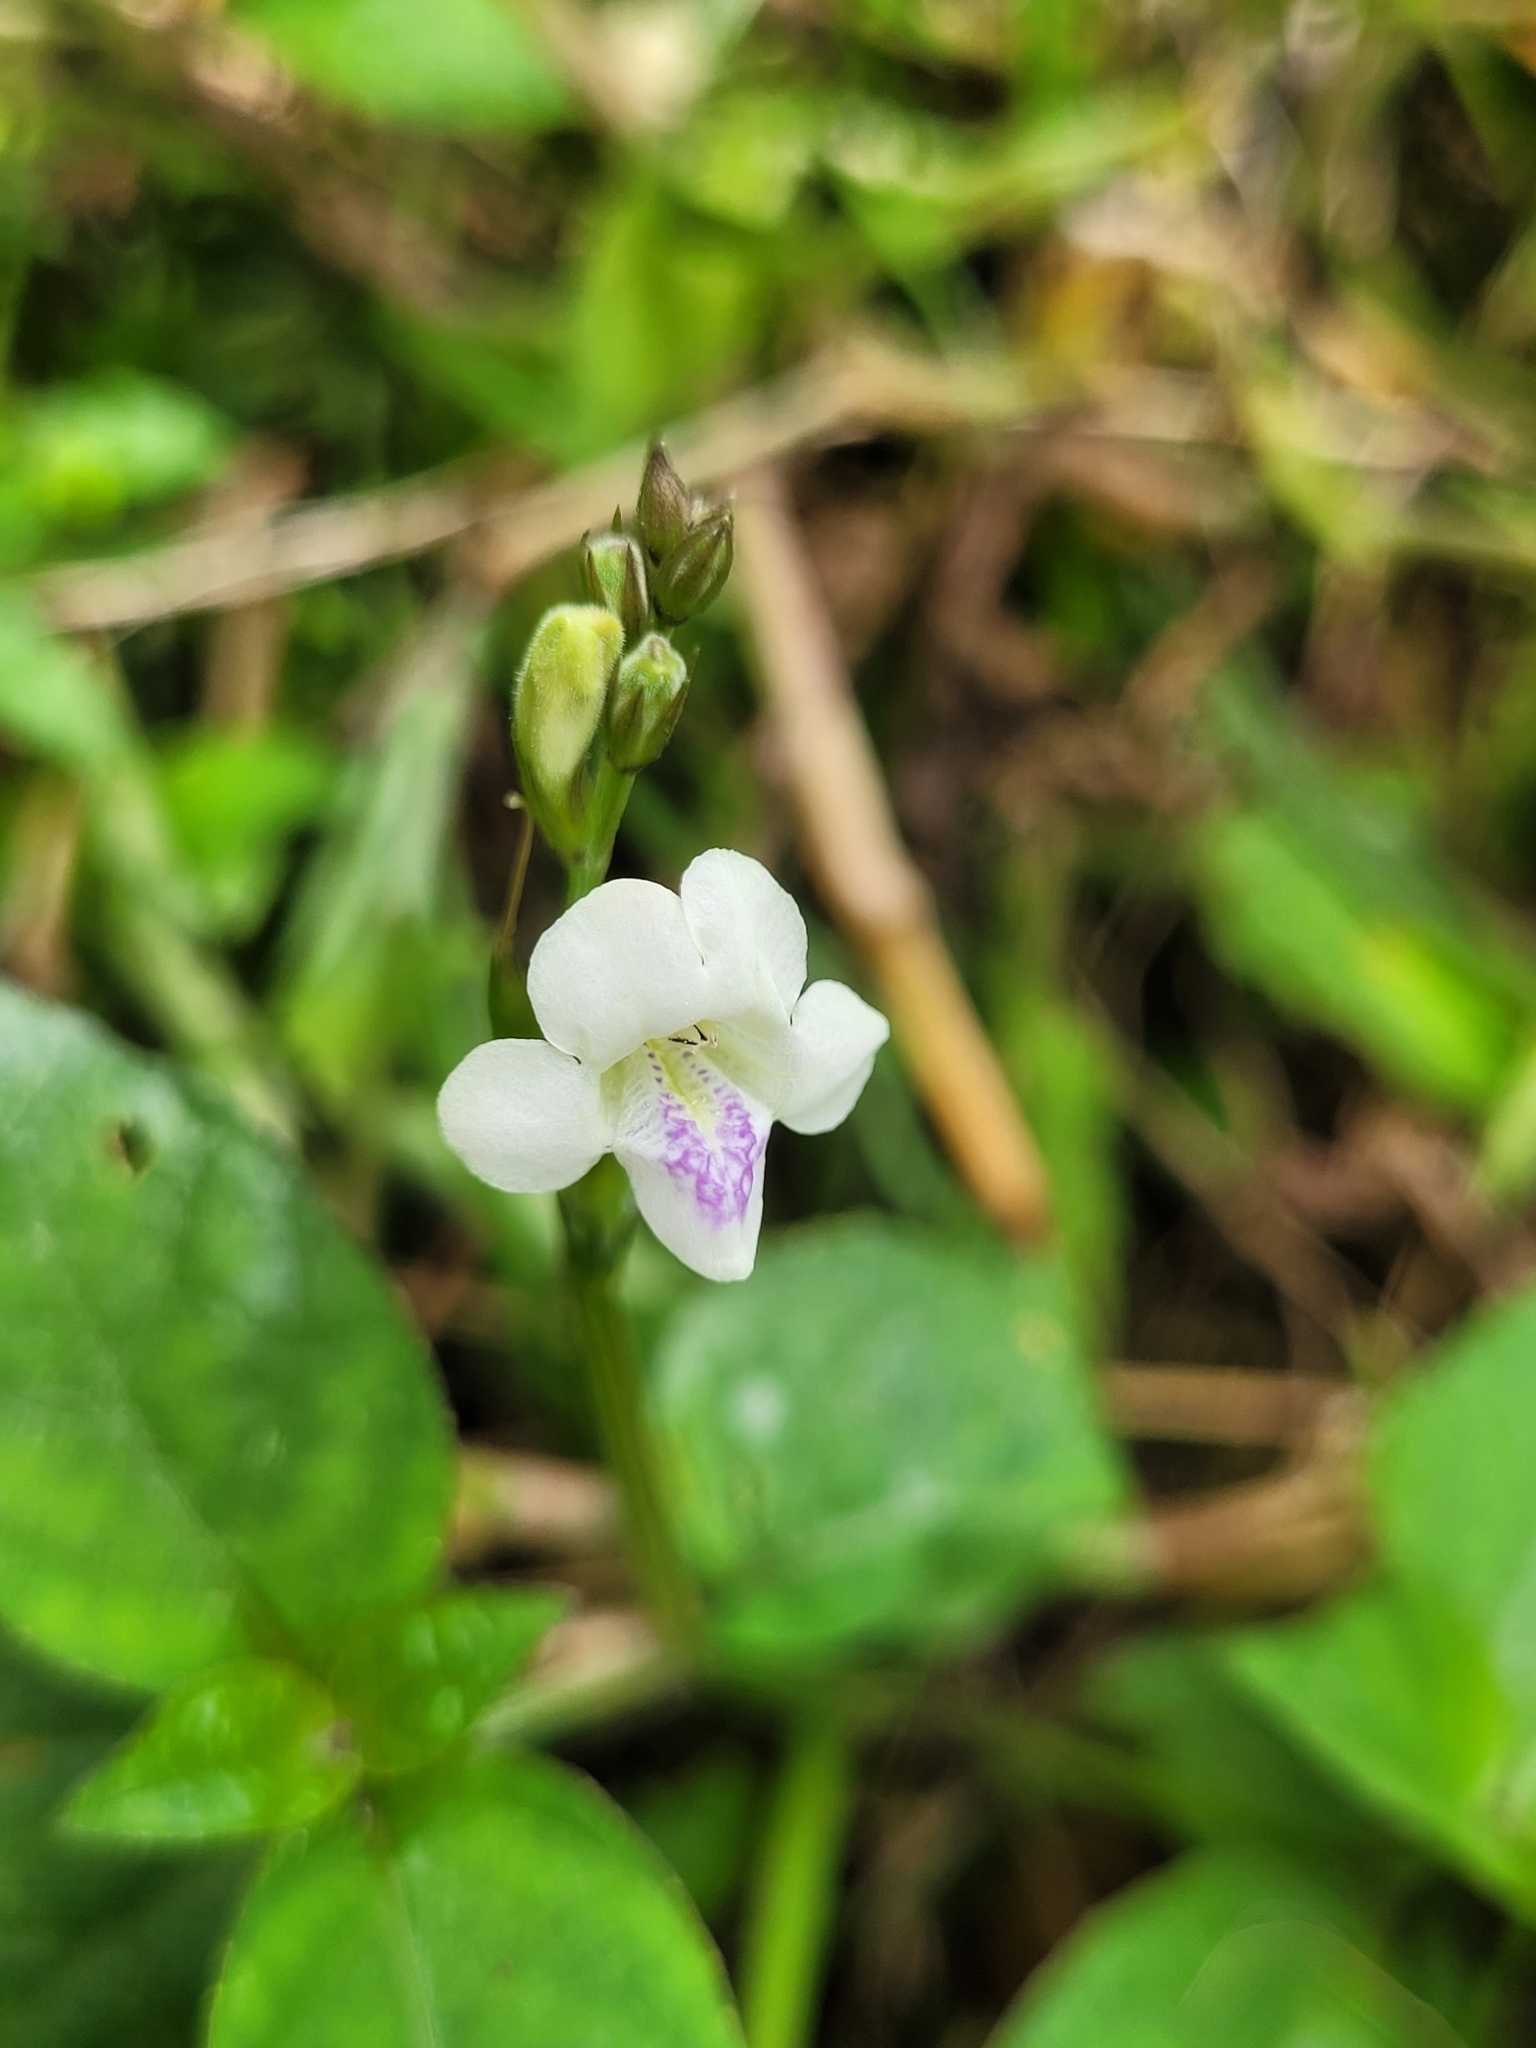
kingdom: Plantae
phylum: Tracheophyta
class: Magnoliopsida
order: Lamiales
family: Acanthaceae
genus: Asystasia
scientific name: Asystasia intrusa
